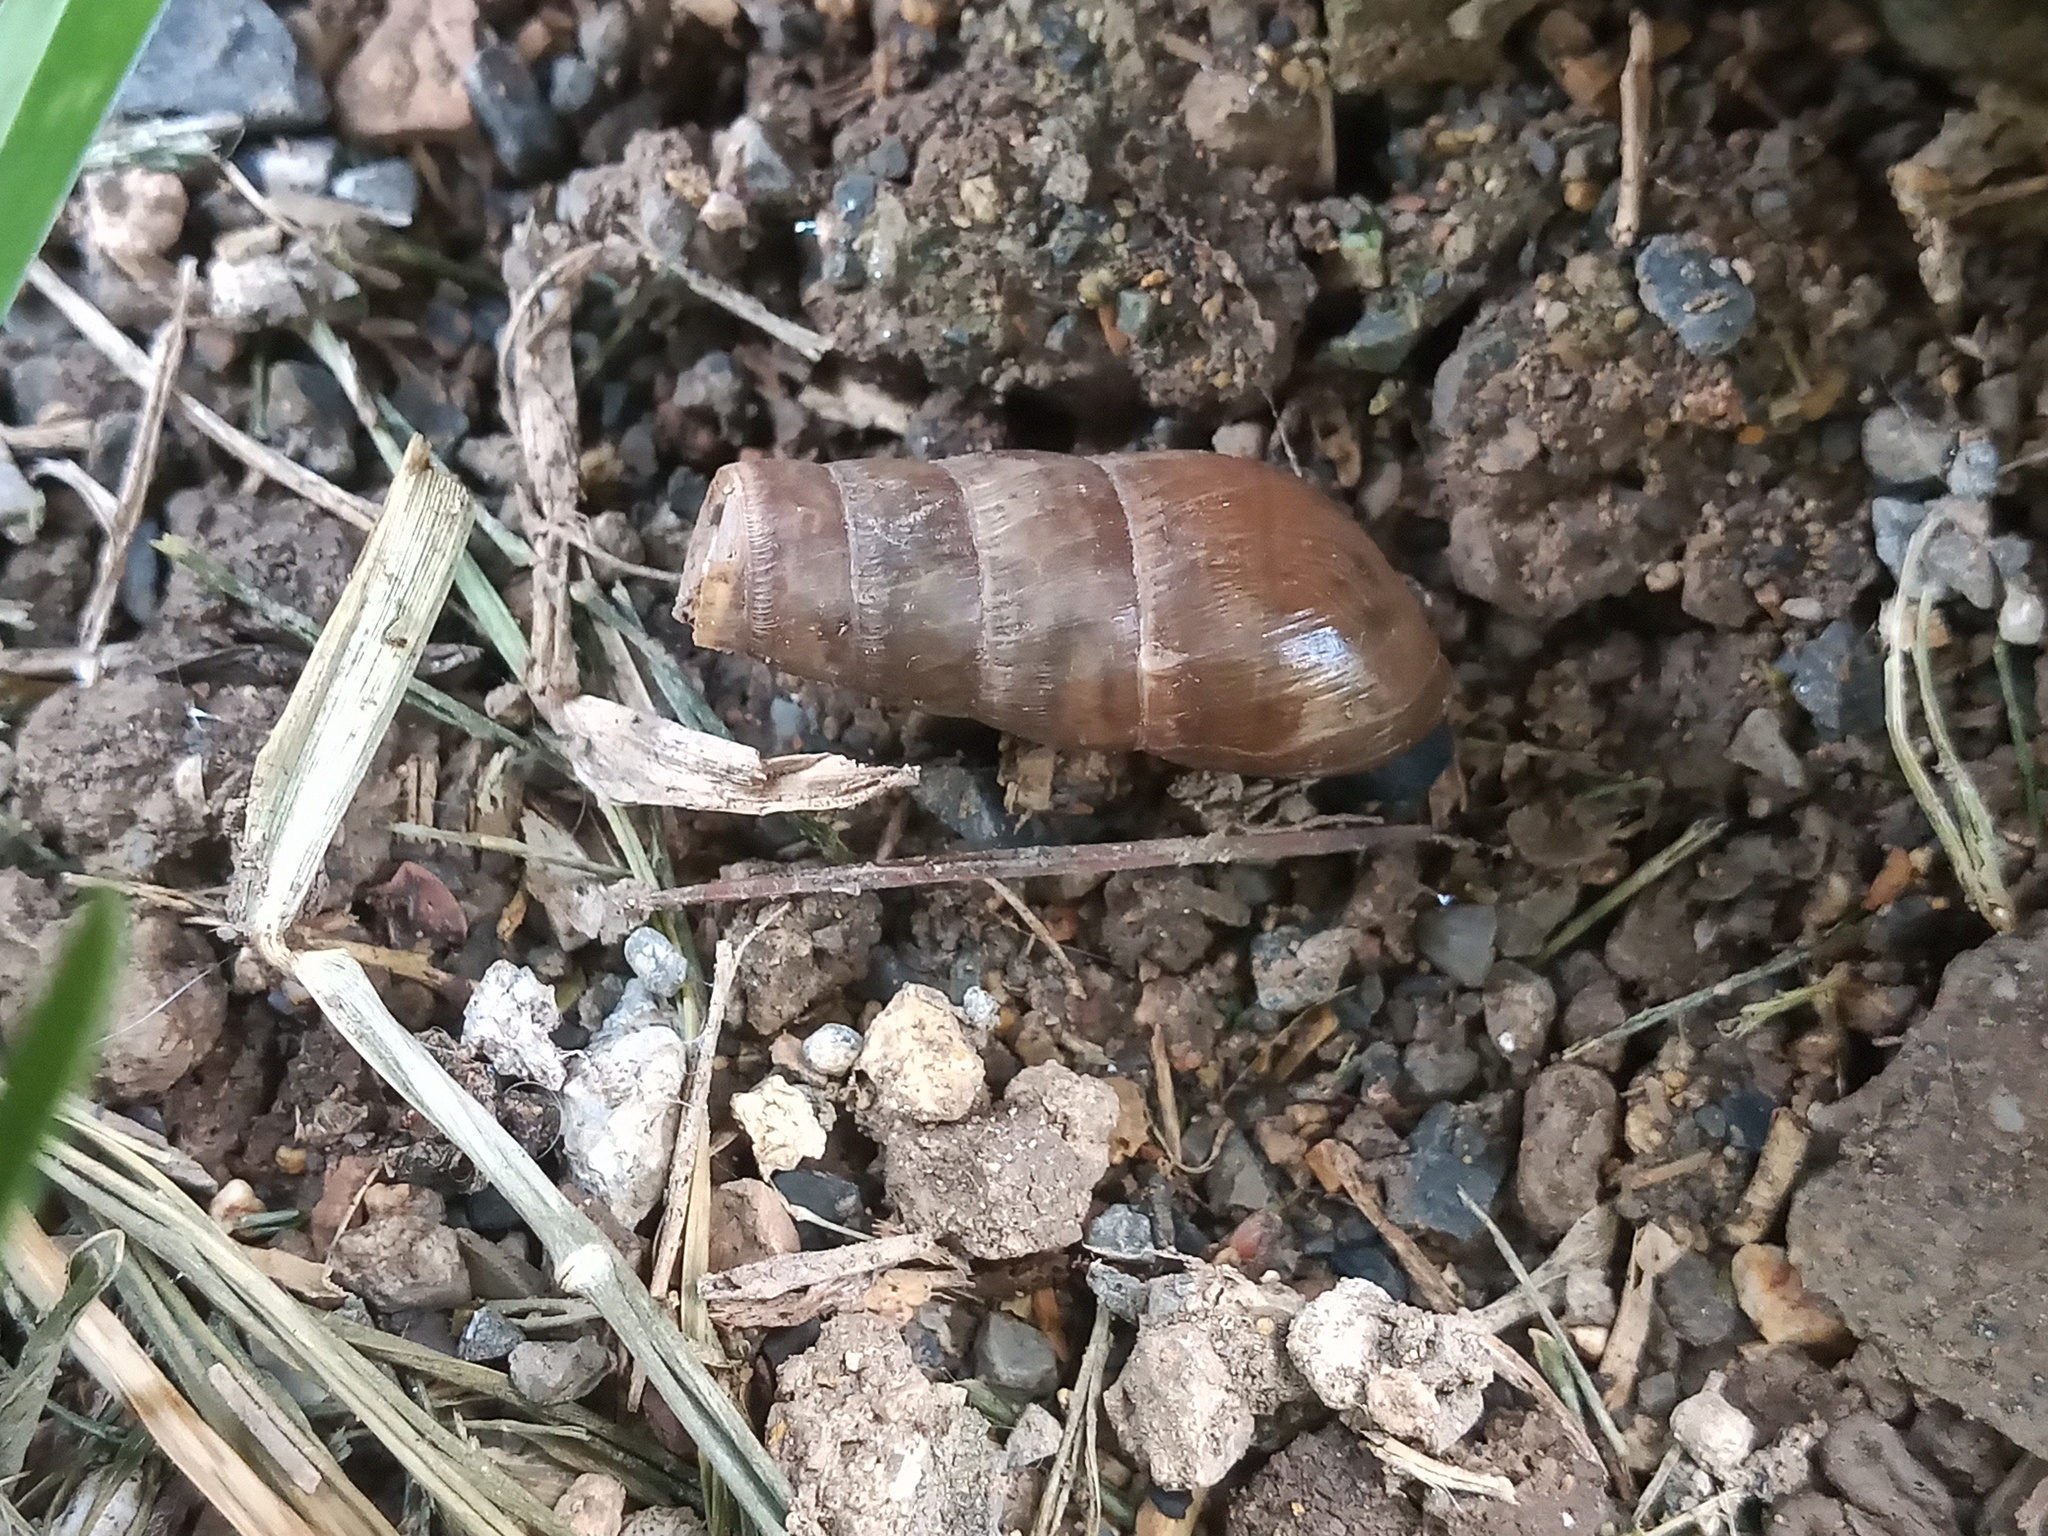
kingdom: Animalia
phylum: Mollusca
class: Gastropoda
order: Stylommatophora
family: Achatinidae
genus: Rumina
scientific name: Rumina decollata
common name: Decollate snail
